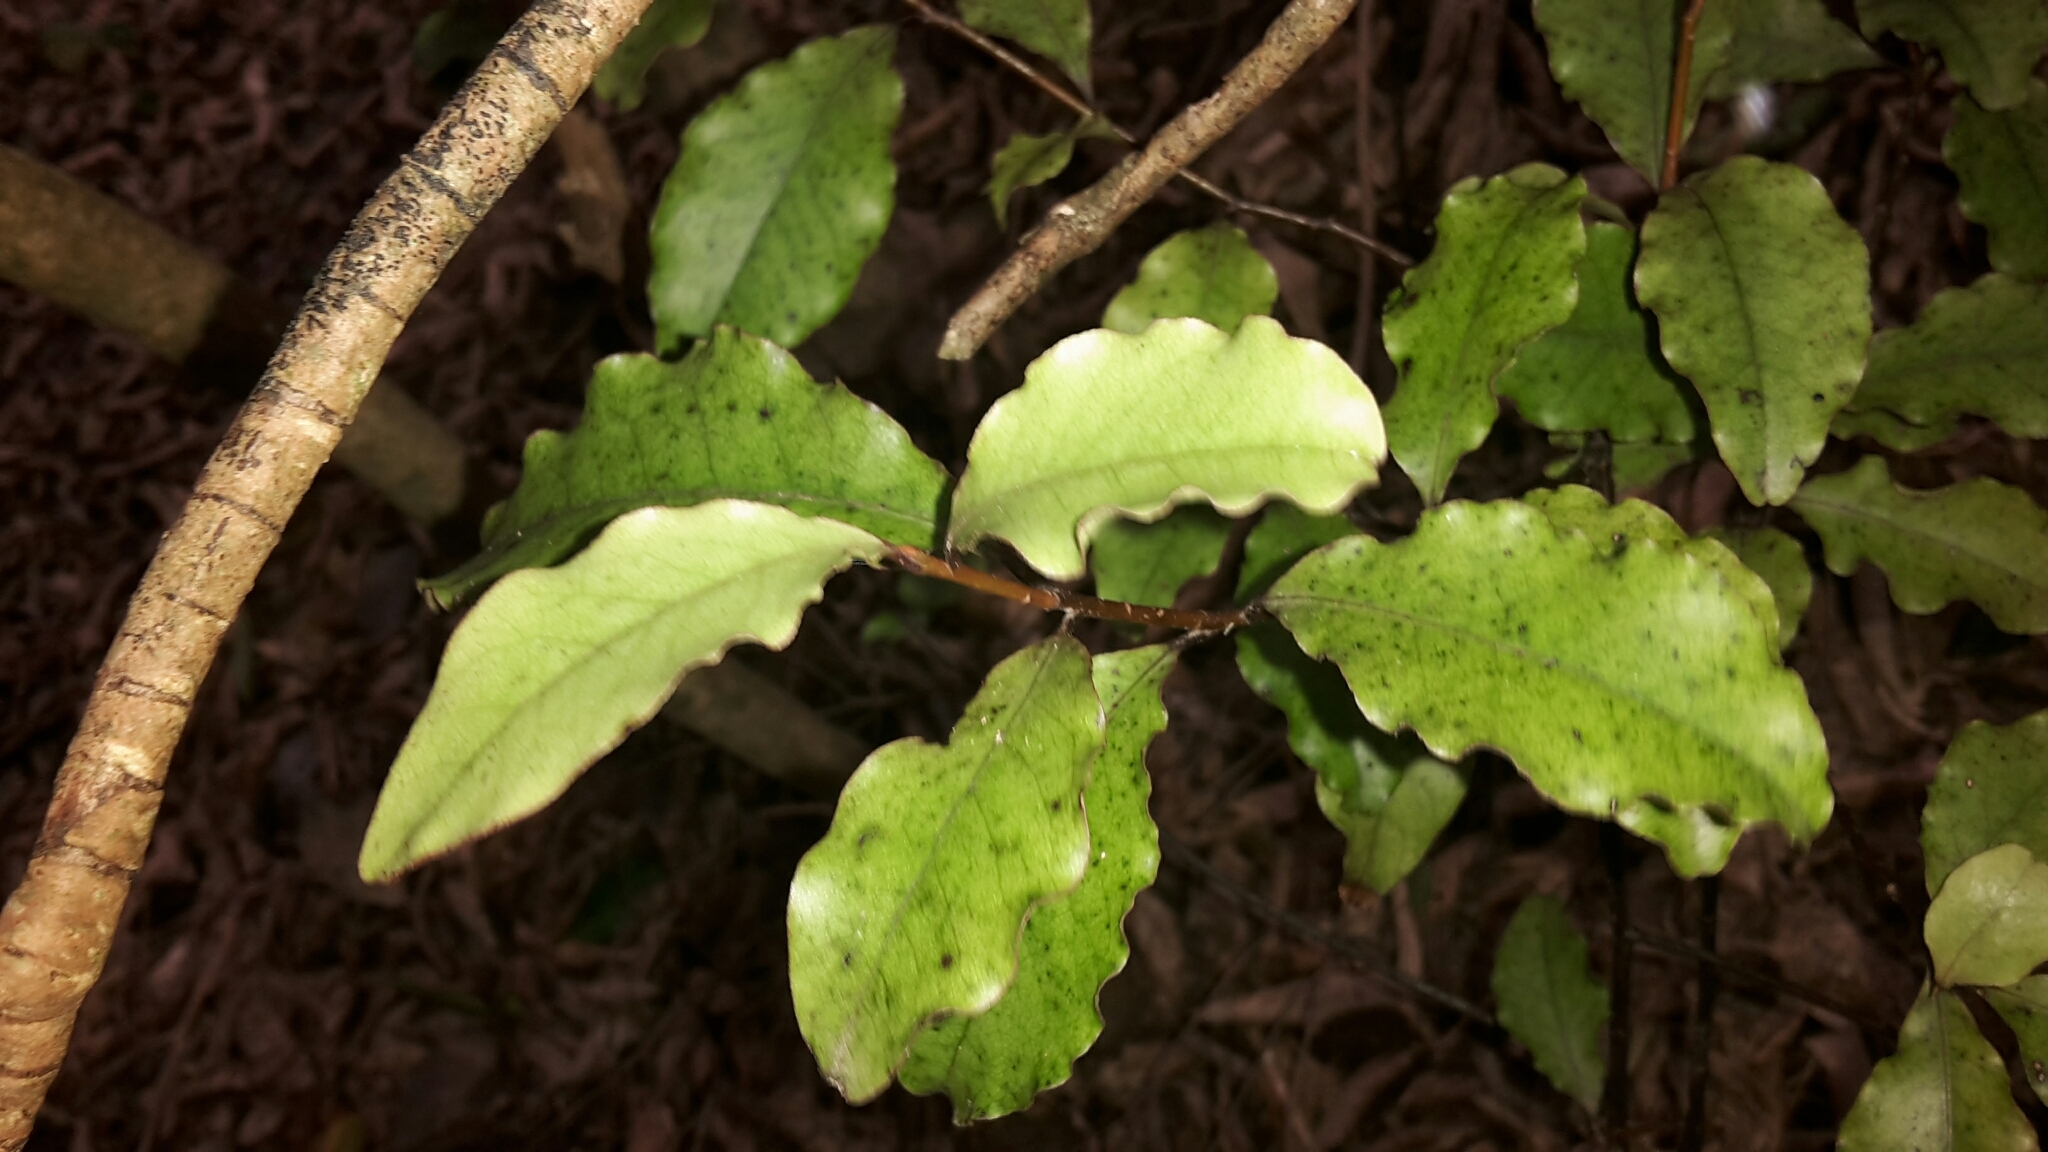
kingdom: Plantae
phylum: Tracheophyta
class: Magnoliopsida
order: Ericales
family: Primulaceae
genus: Myrsine
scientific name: Myrsine australis
